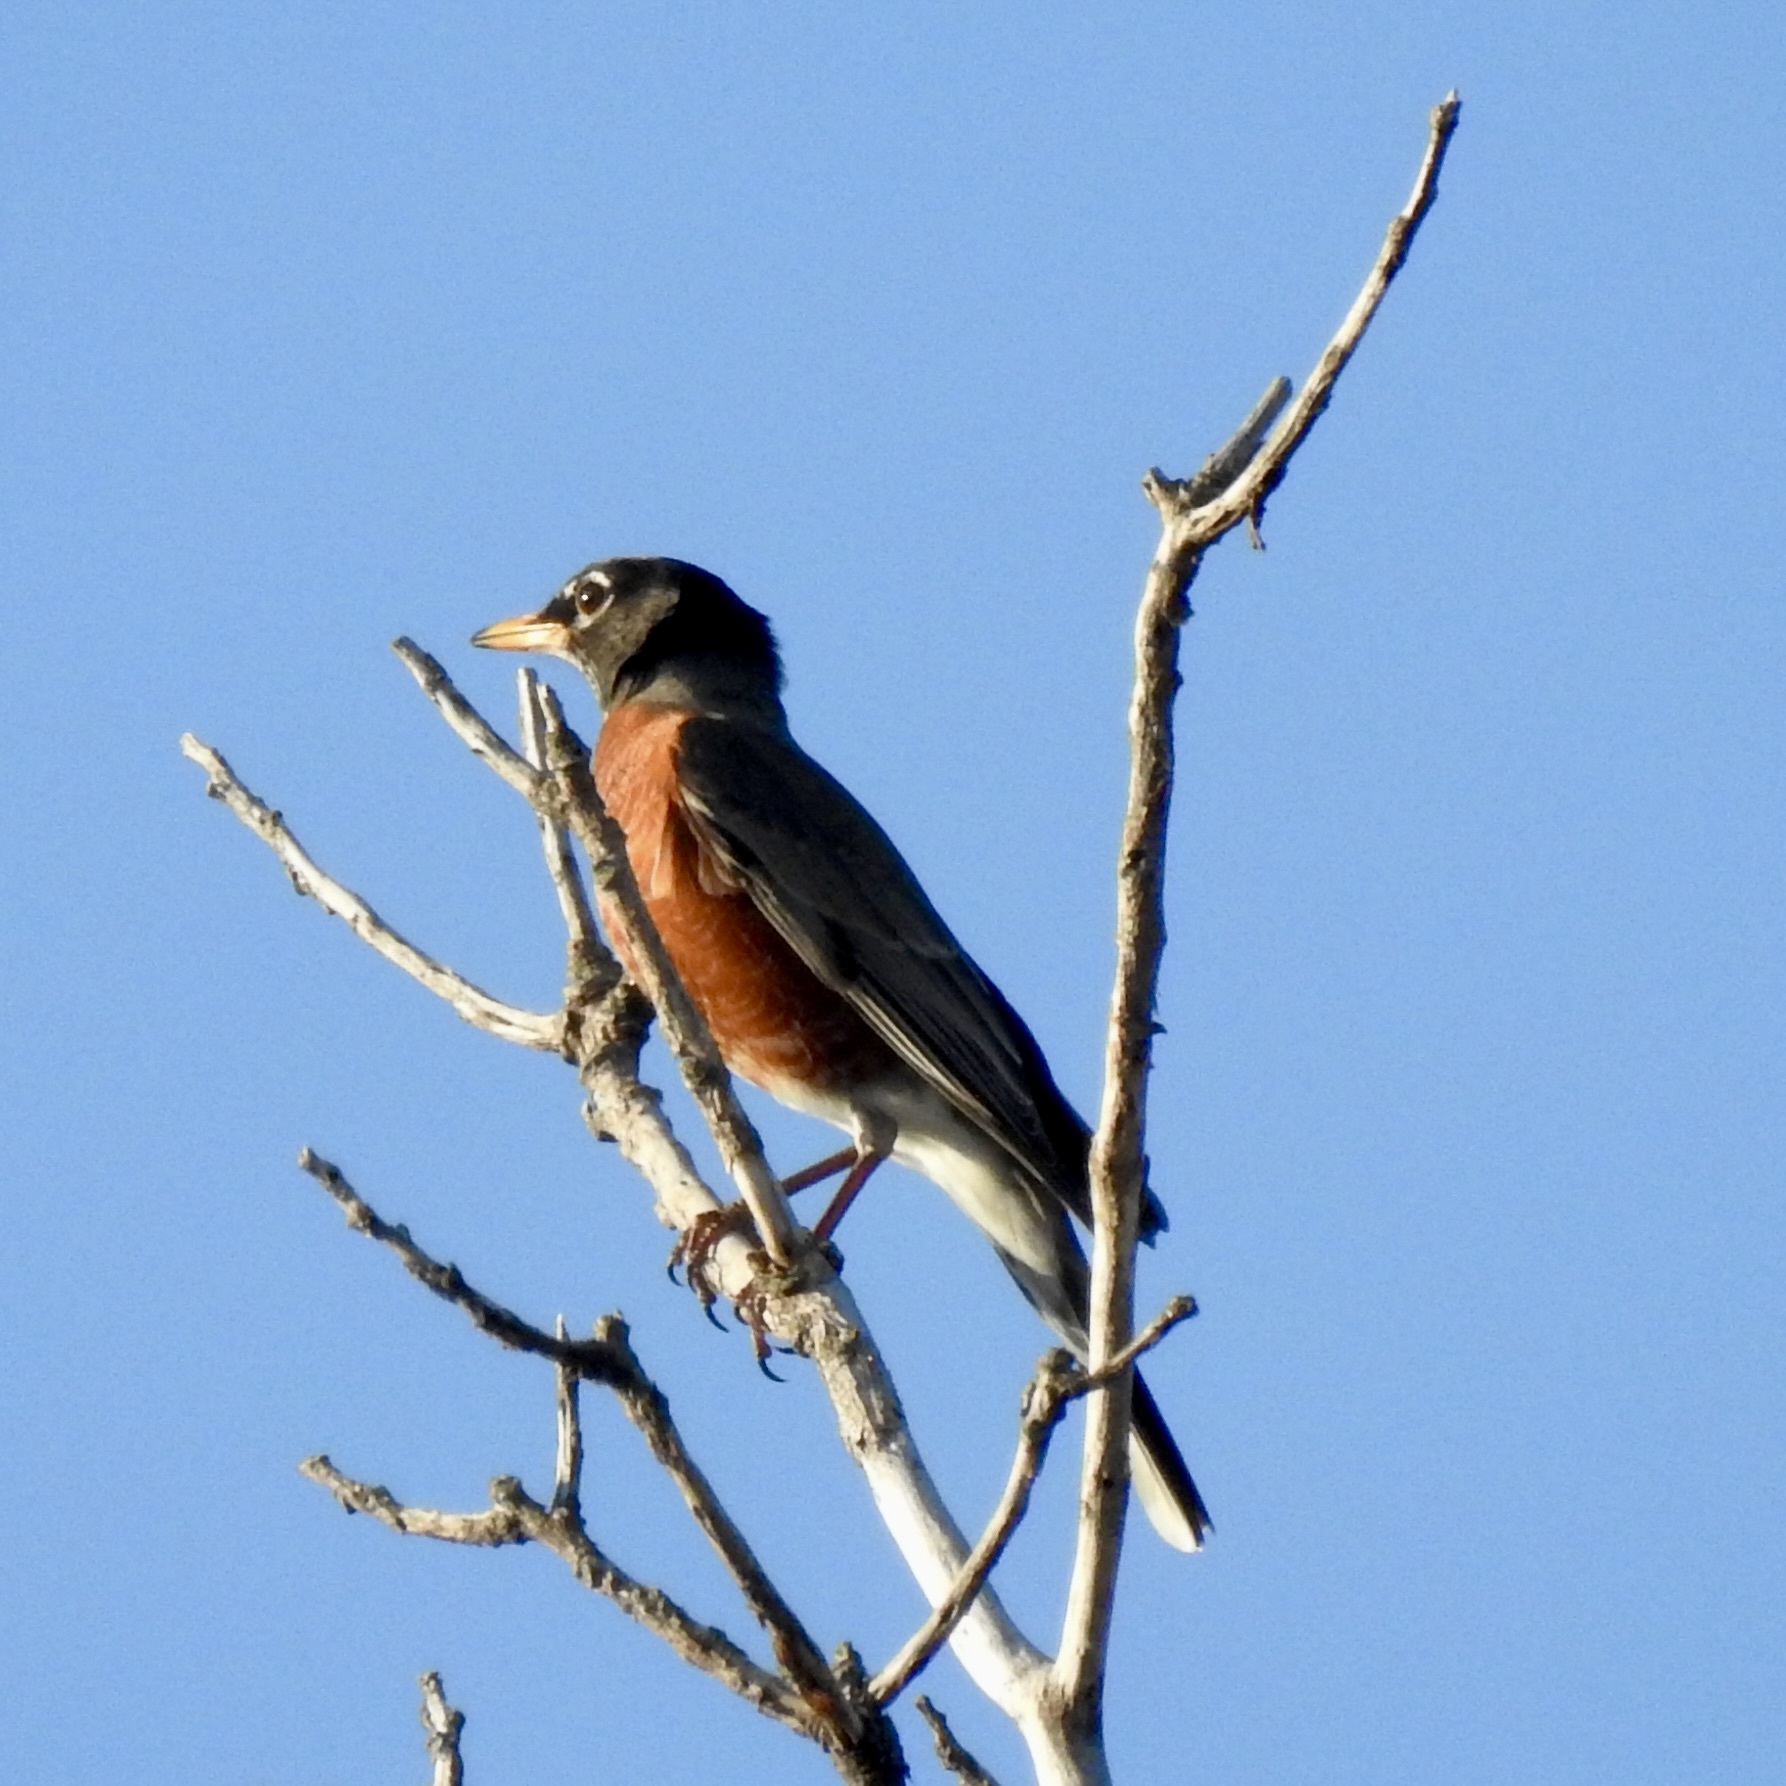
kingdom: Animalia
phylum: Chordata
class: Aves
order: Passeriformes
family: Turdidae
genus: Turdus
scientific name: Turdus migratorius
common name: American robin
